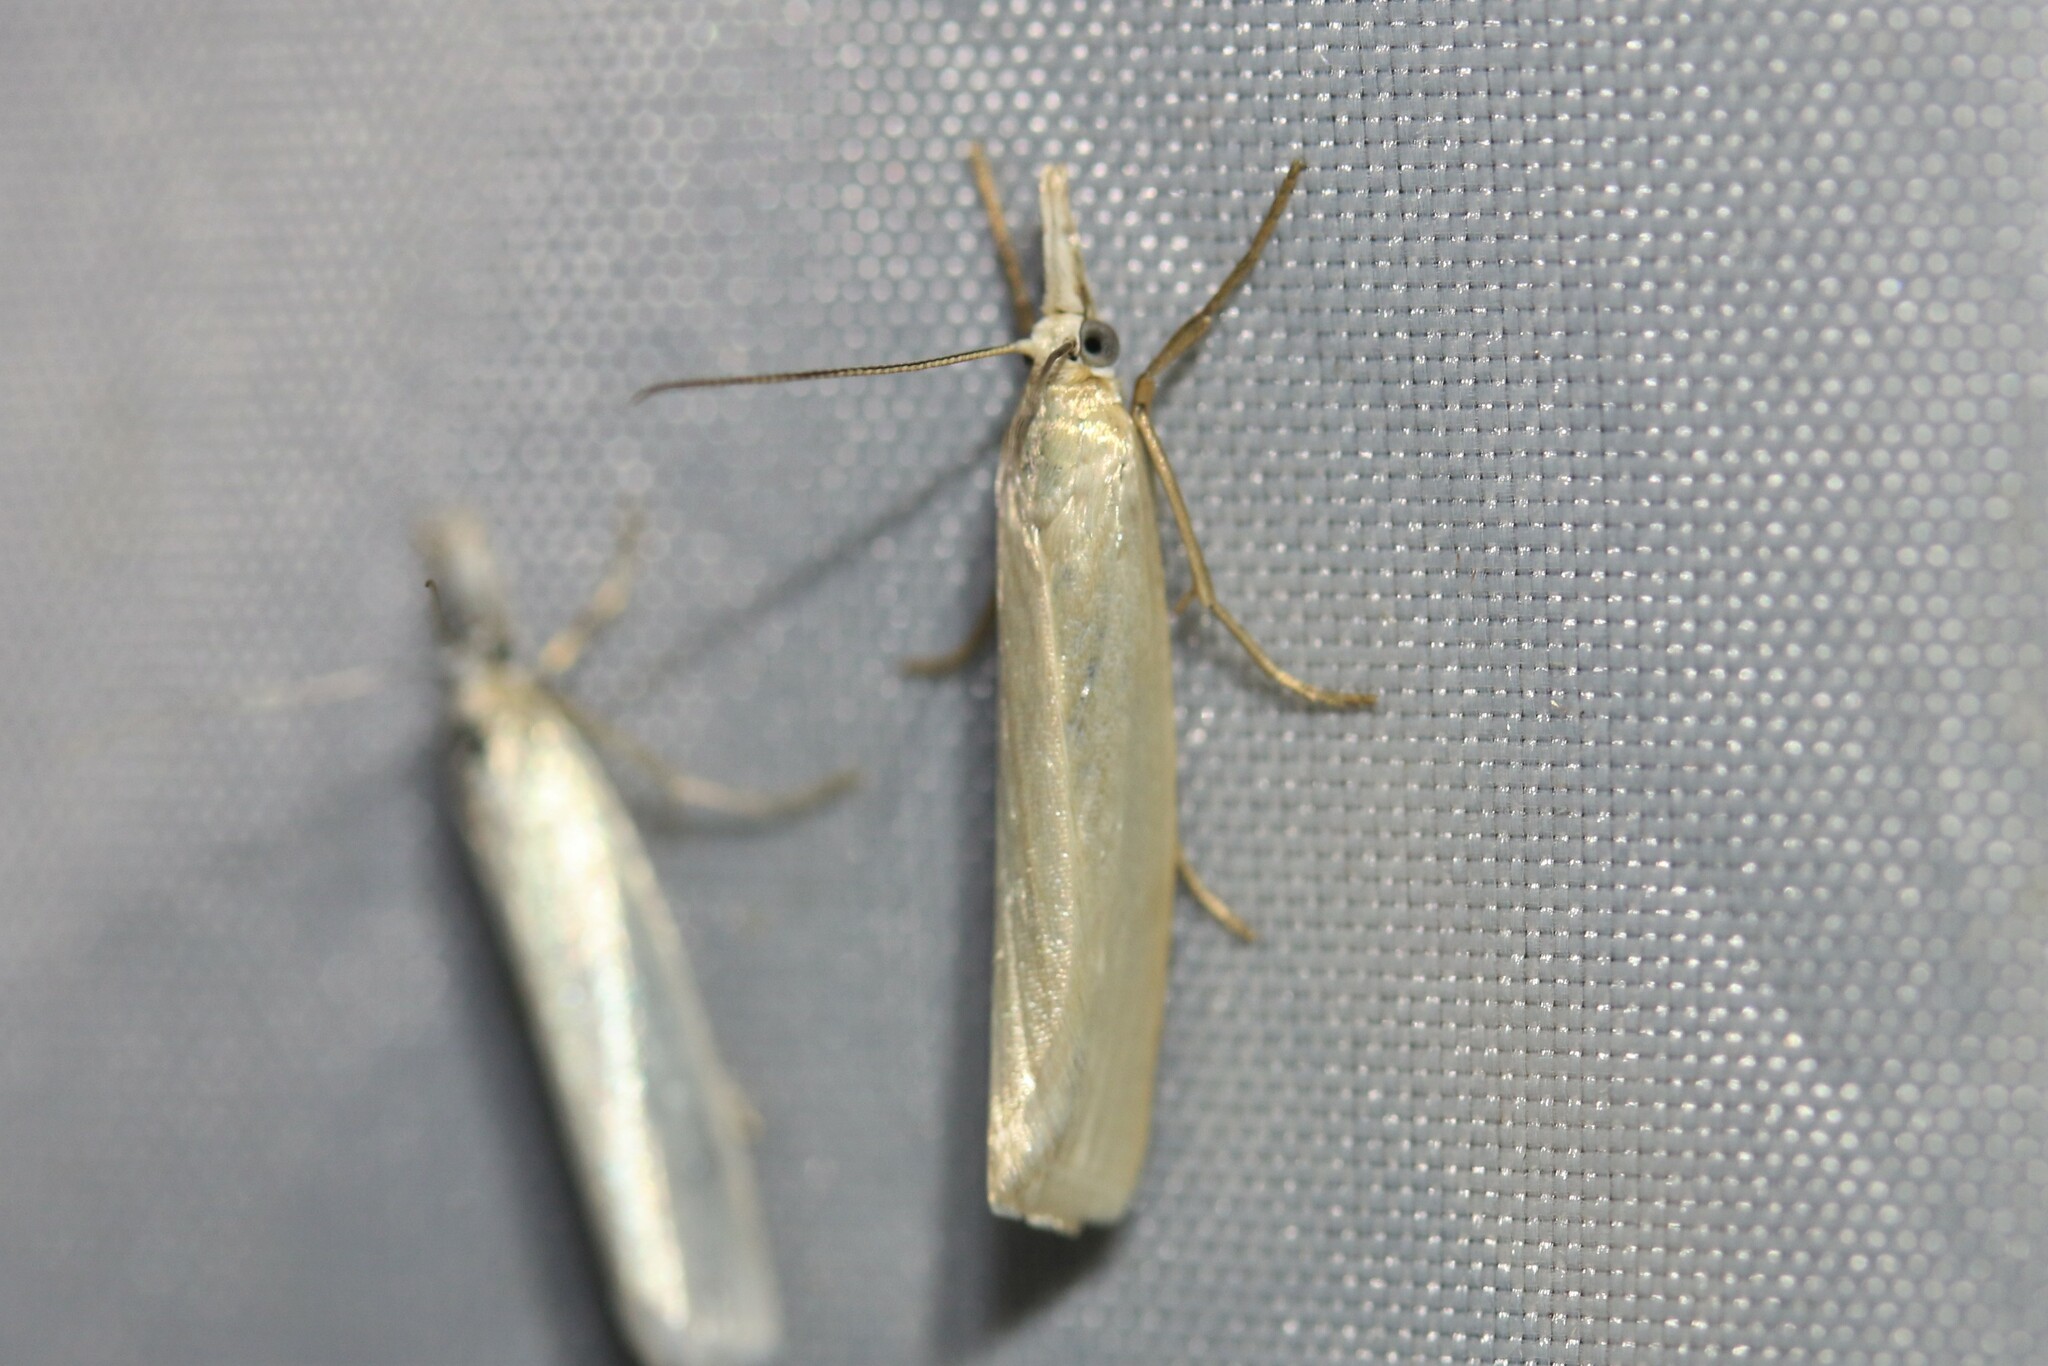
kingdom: Animalia
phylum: Arthropoda
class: Insecta
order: Lepidoptera
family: Crambidae
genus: Crambus
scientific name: Crambus perlellus
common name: Yellow satin veneer
